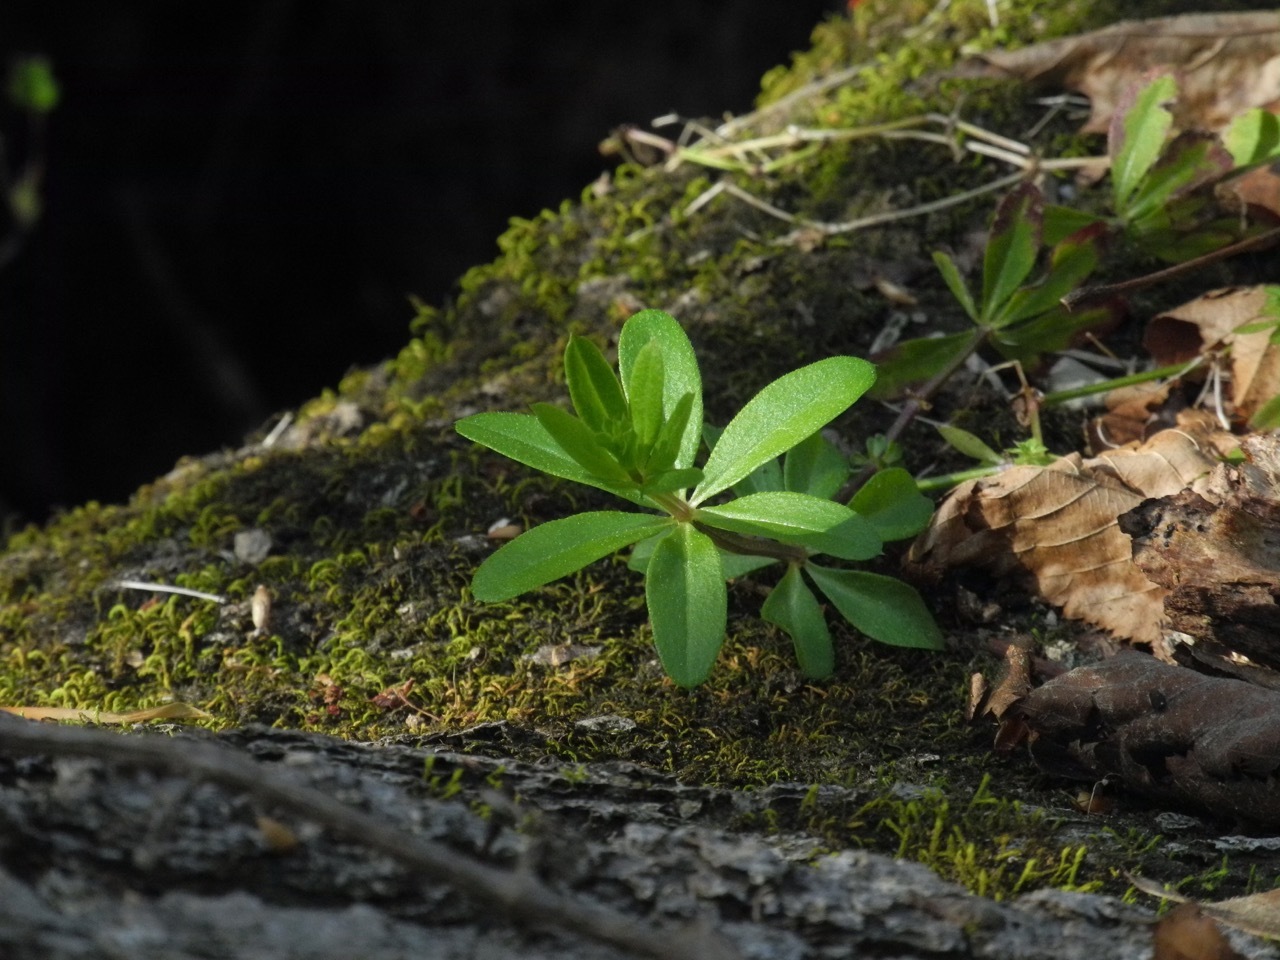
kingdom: Plantae
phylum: Tracheophyta
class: Magnoliopsida
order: Gentianales
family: Rubiaceae
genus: Galium
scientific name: Galium triflorum
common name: Fragrant bedstraw
